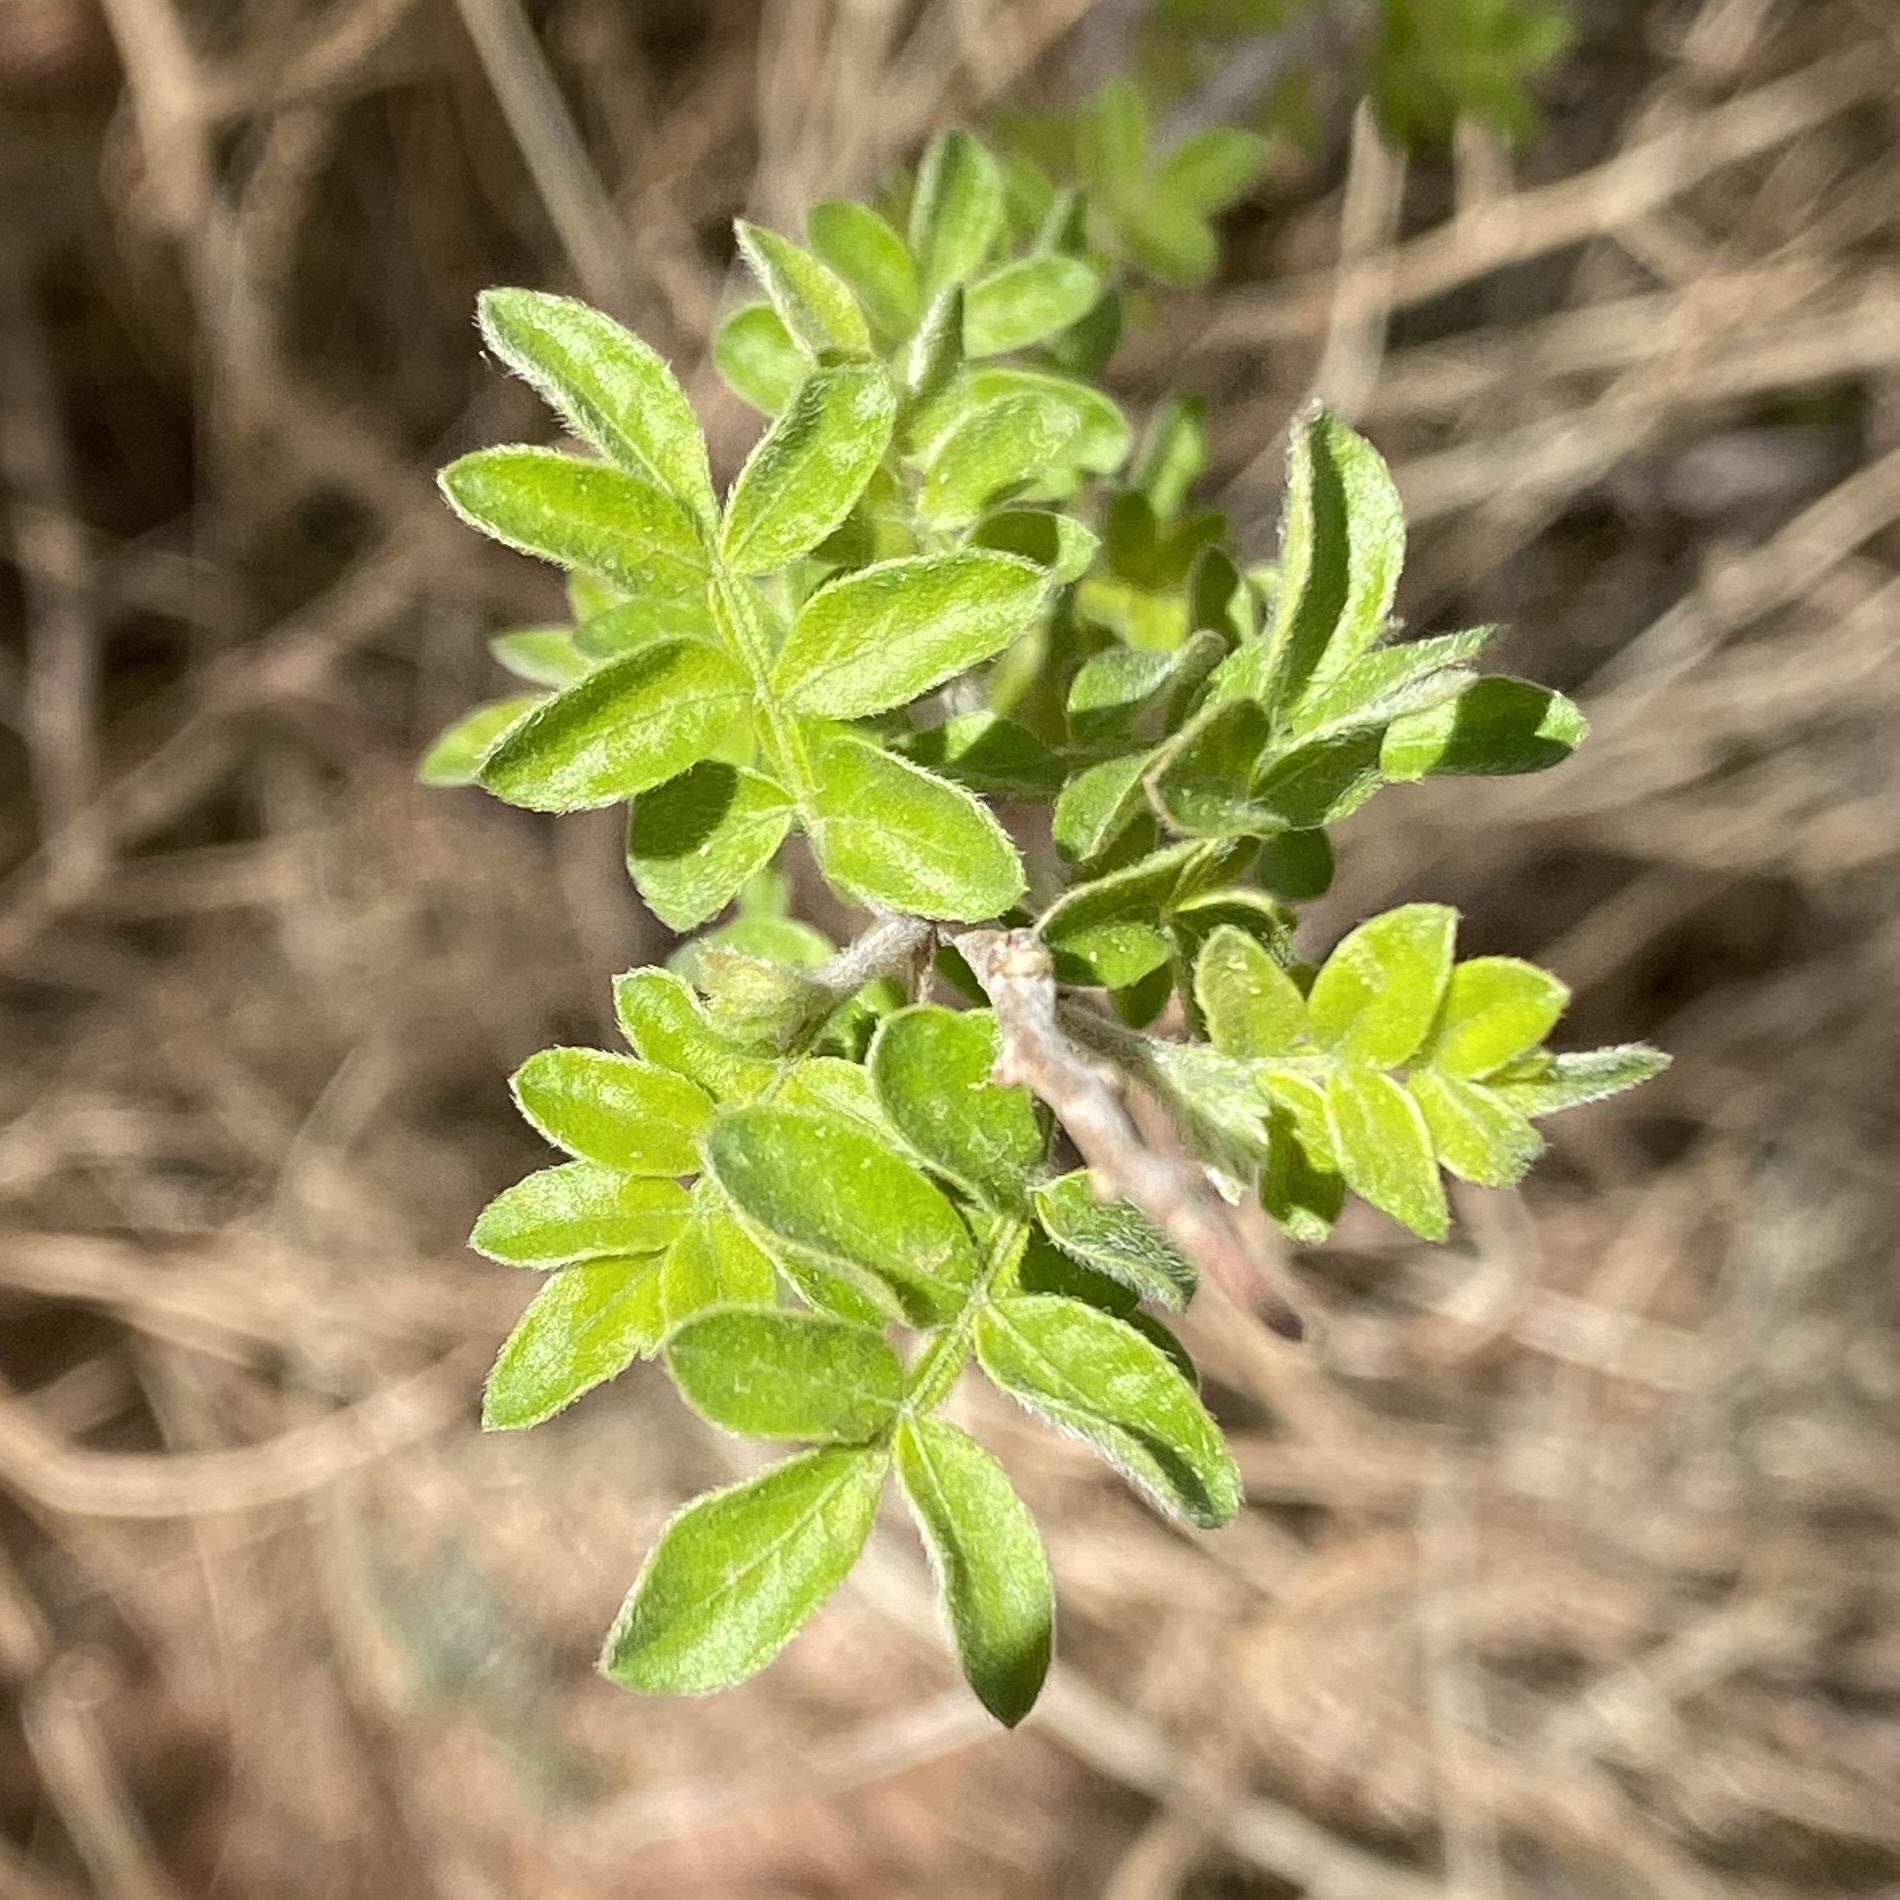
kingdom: Plantae
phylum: Tracheophyta
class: Magnoliopsida
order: Sapindales
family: Anacardiaceae
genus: Rhus
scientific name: Rhus microphylla
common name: Desert sumac
